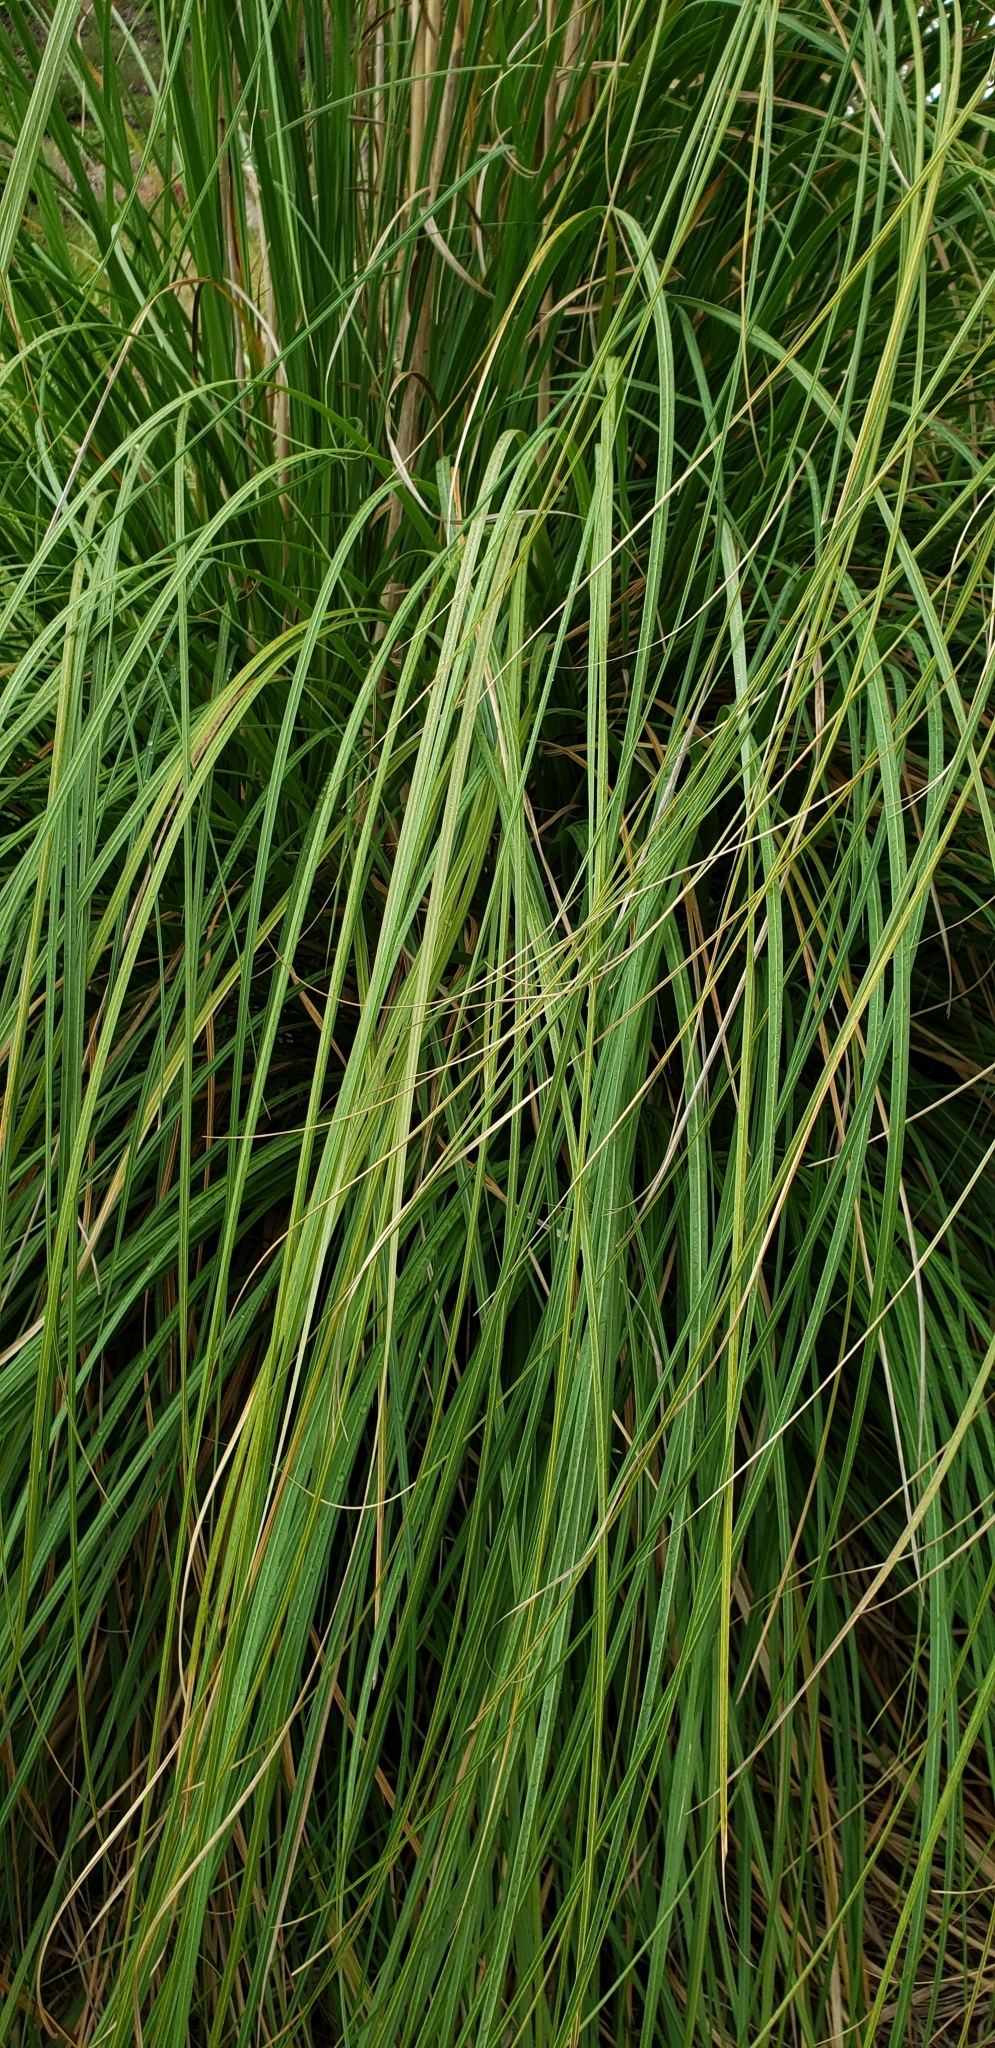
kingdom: Plantae
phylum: Tracheophyta
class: Liliopsida
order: Poales
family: Poaceae
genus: Cortaderia
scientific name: Cortaderia selloana
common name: Uruguayan pampas grass
